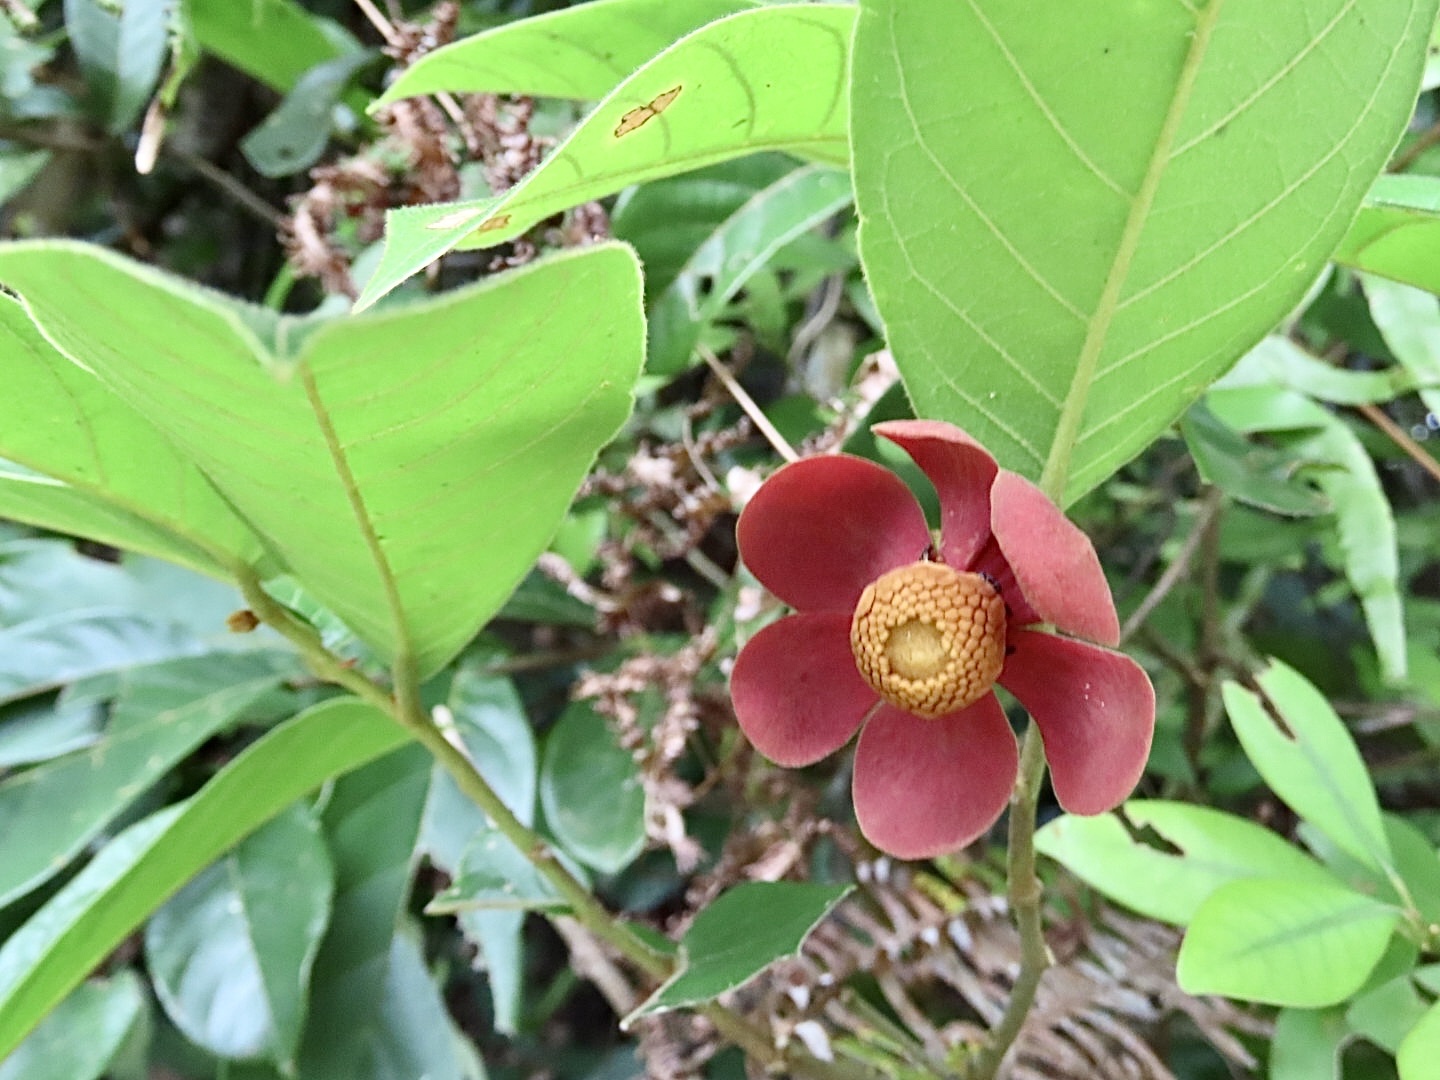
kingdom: Plantae
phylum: Tracheophyta
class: Magnoliopsida
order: Magnoliales
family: Annonaceae
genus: Uvaria
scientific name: Uvaria littoralis
